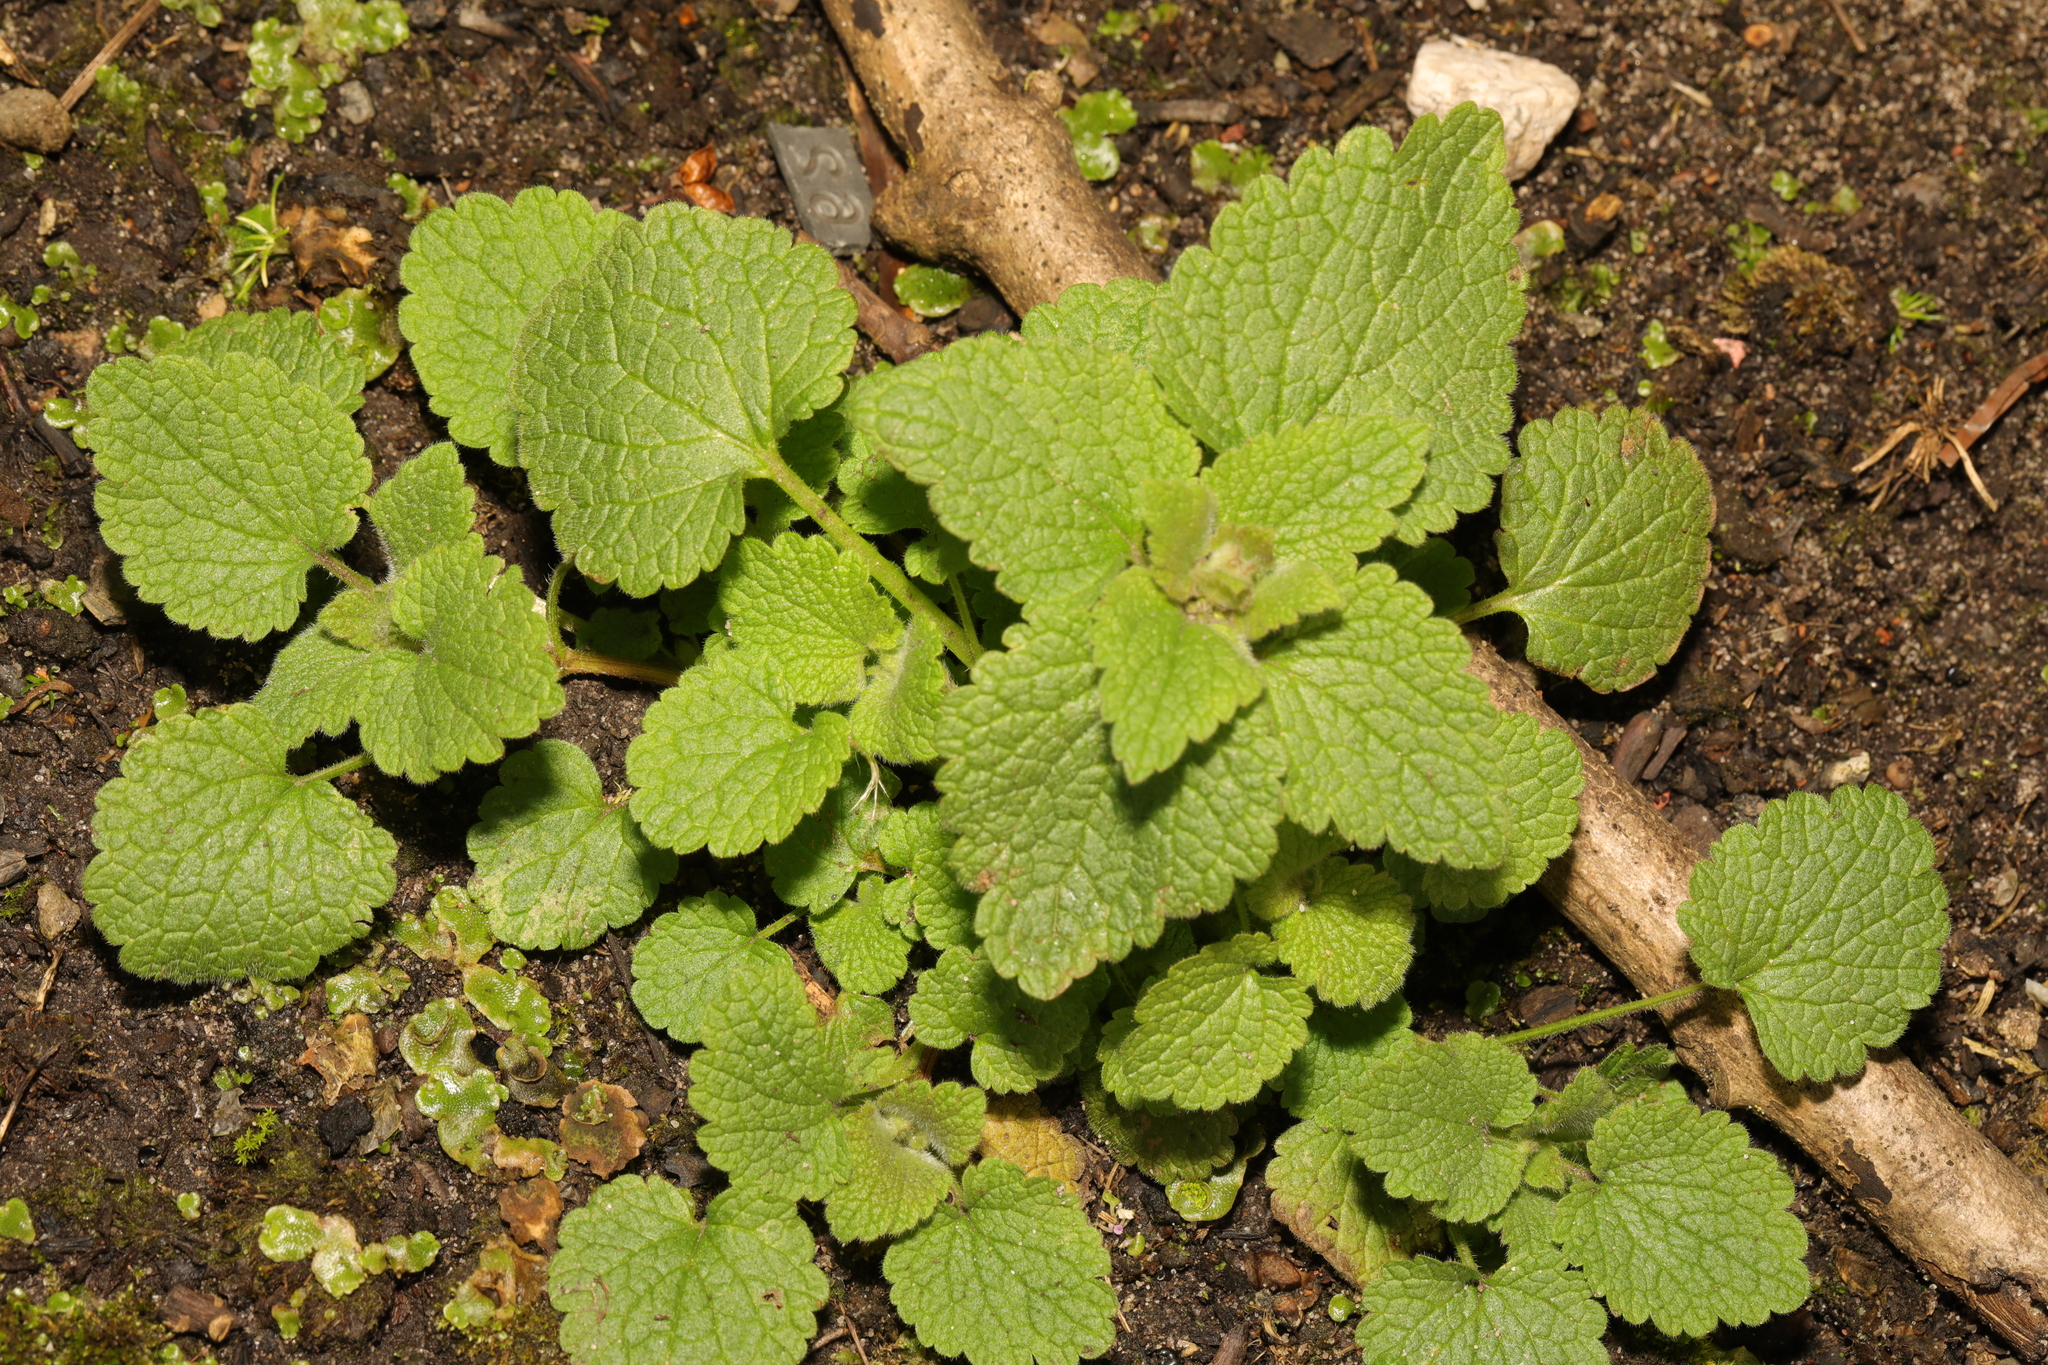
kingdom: Plantae
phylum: Tracheophyta
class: Magnoliopsida
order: Lamiales
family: Lamiaceae
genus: Lamium
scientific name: Lamium purpureum
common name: Red dead-nettle
